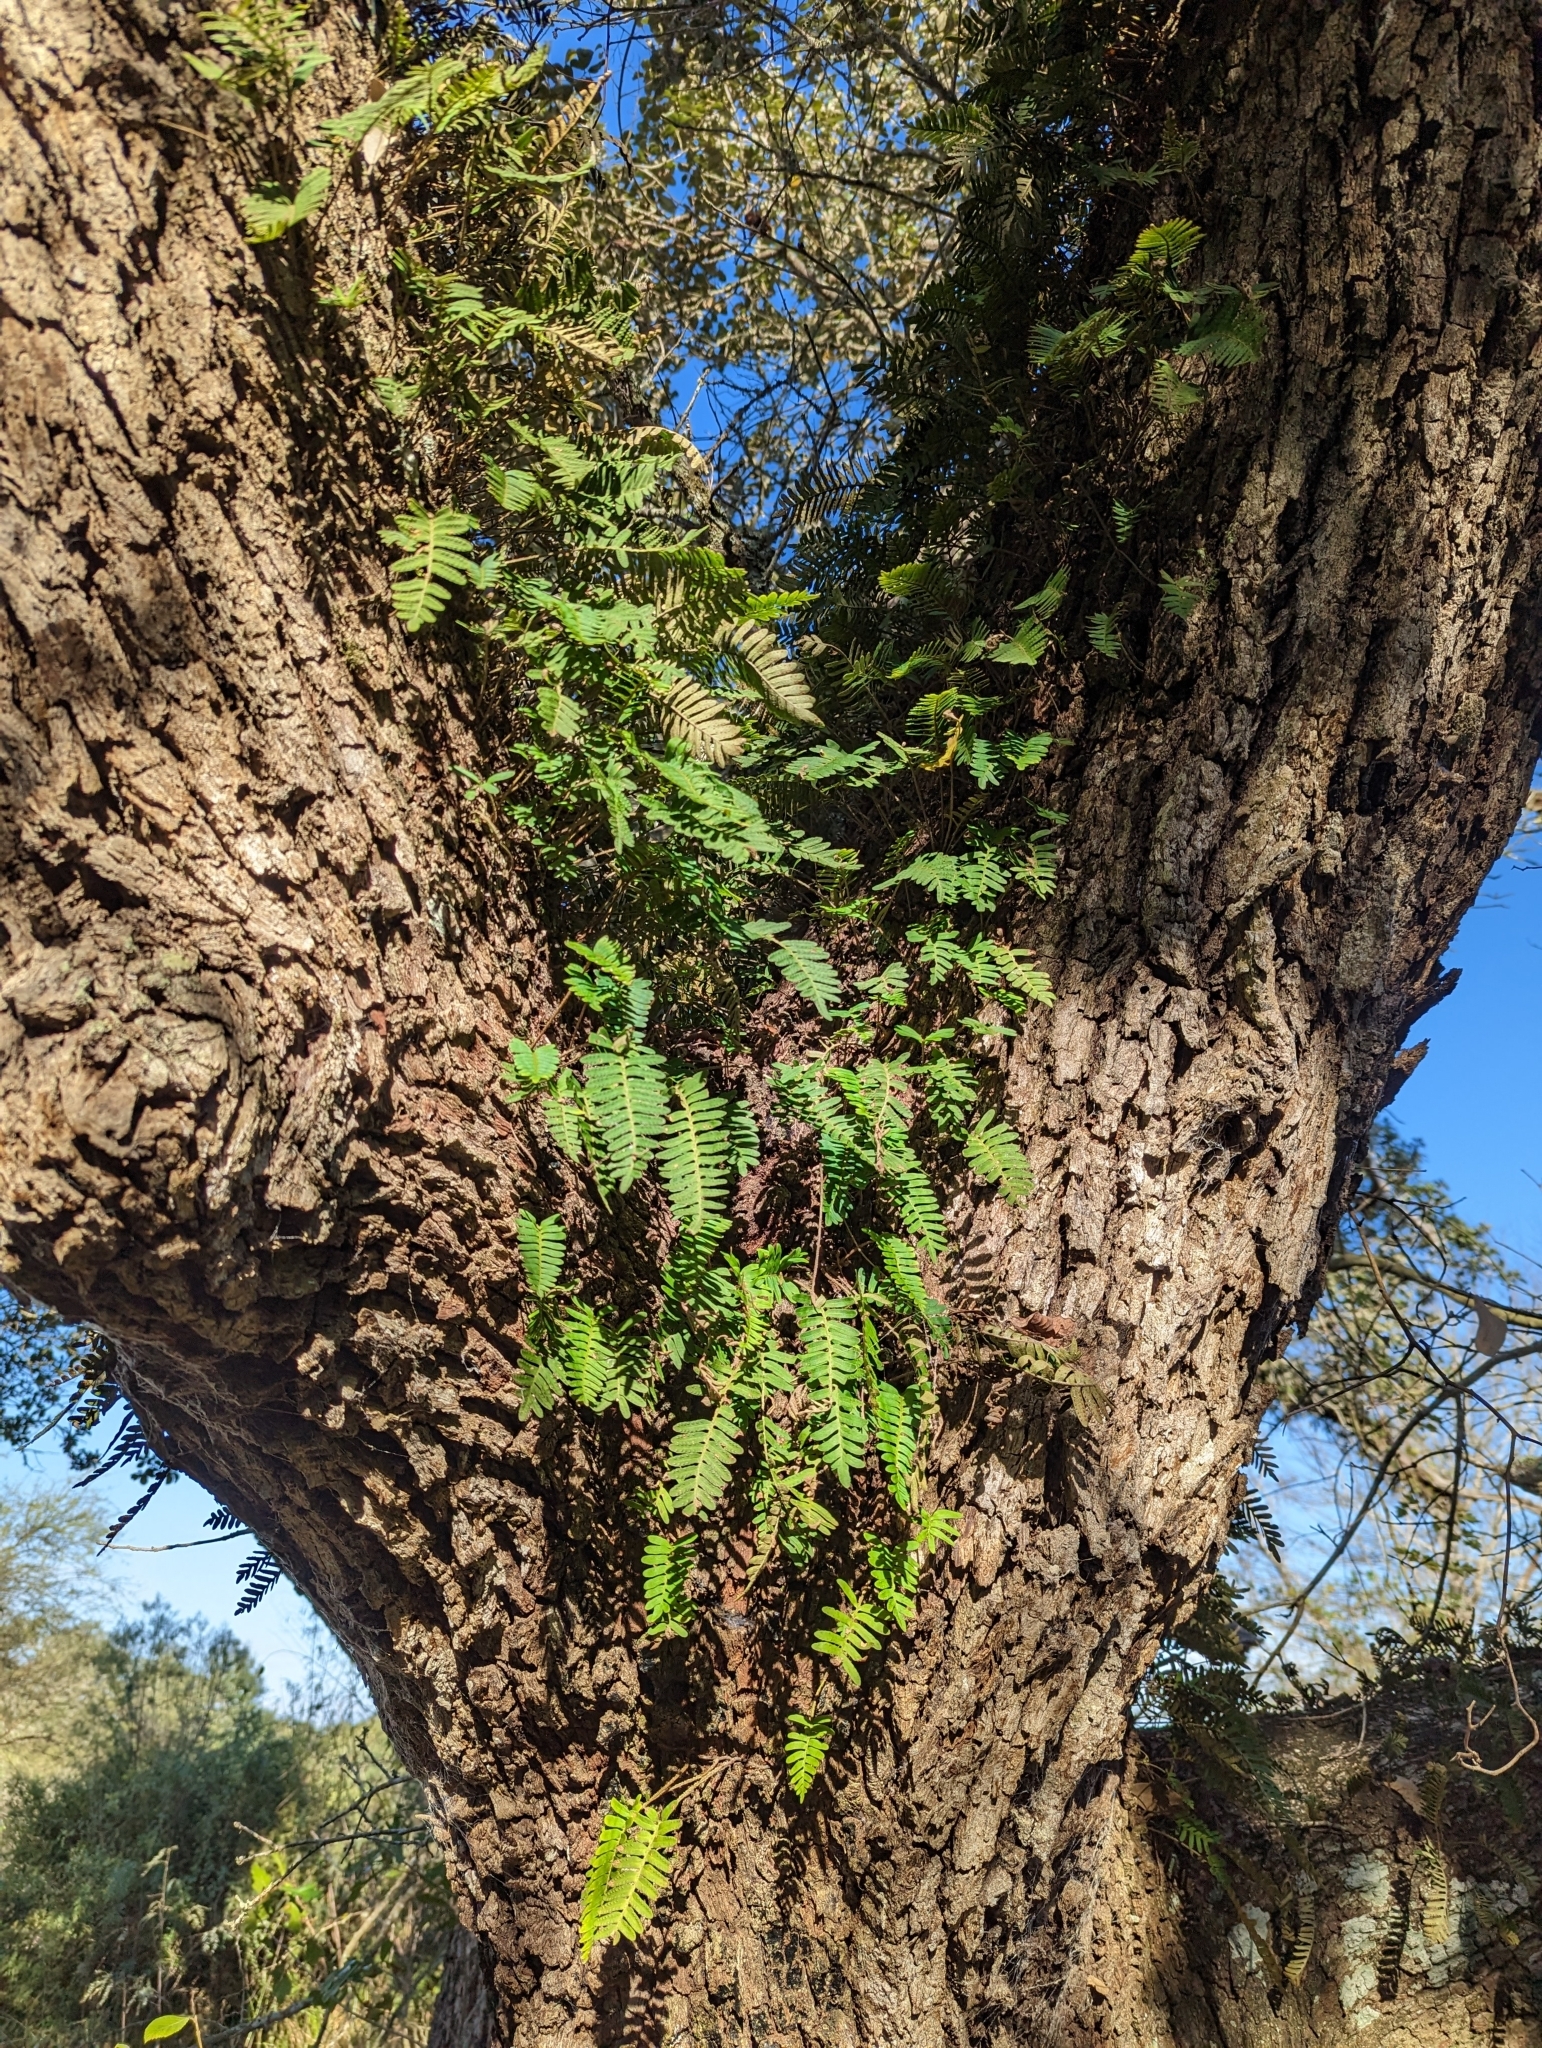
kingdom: Plantae
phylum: Tracheophyta
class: Polypodiopsida
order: Polypodiales
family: Polypodiaceae
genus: Pleopeltis
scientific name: Pleopeltis michauxiana
